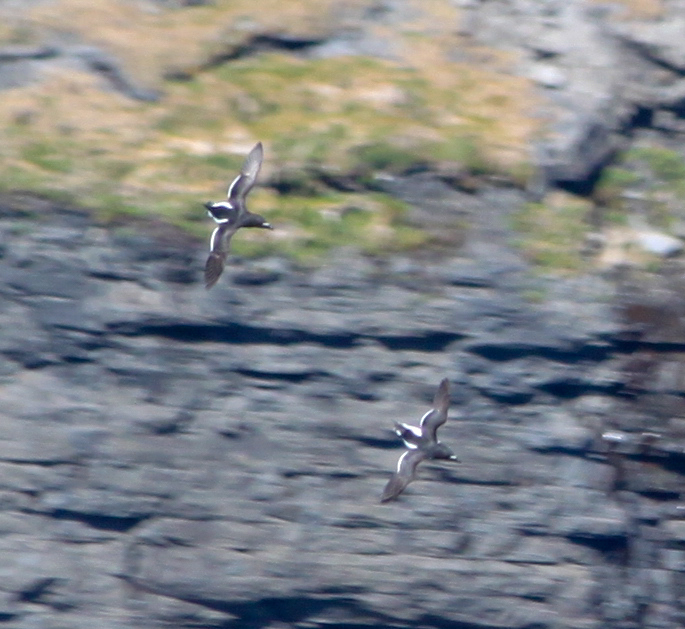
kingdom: Animalia
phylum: Chordata
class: Aves
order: Charadriiformes
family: Alcidae
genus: Alca
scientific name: Alca torda
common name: Razorbill
